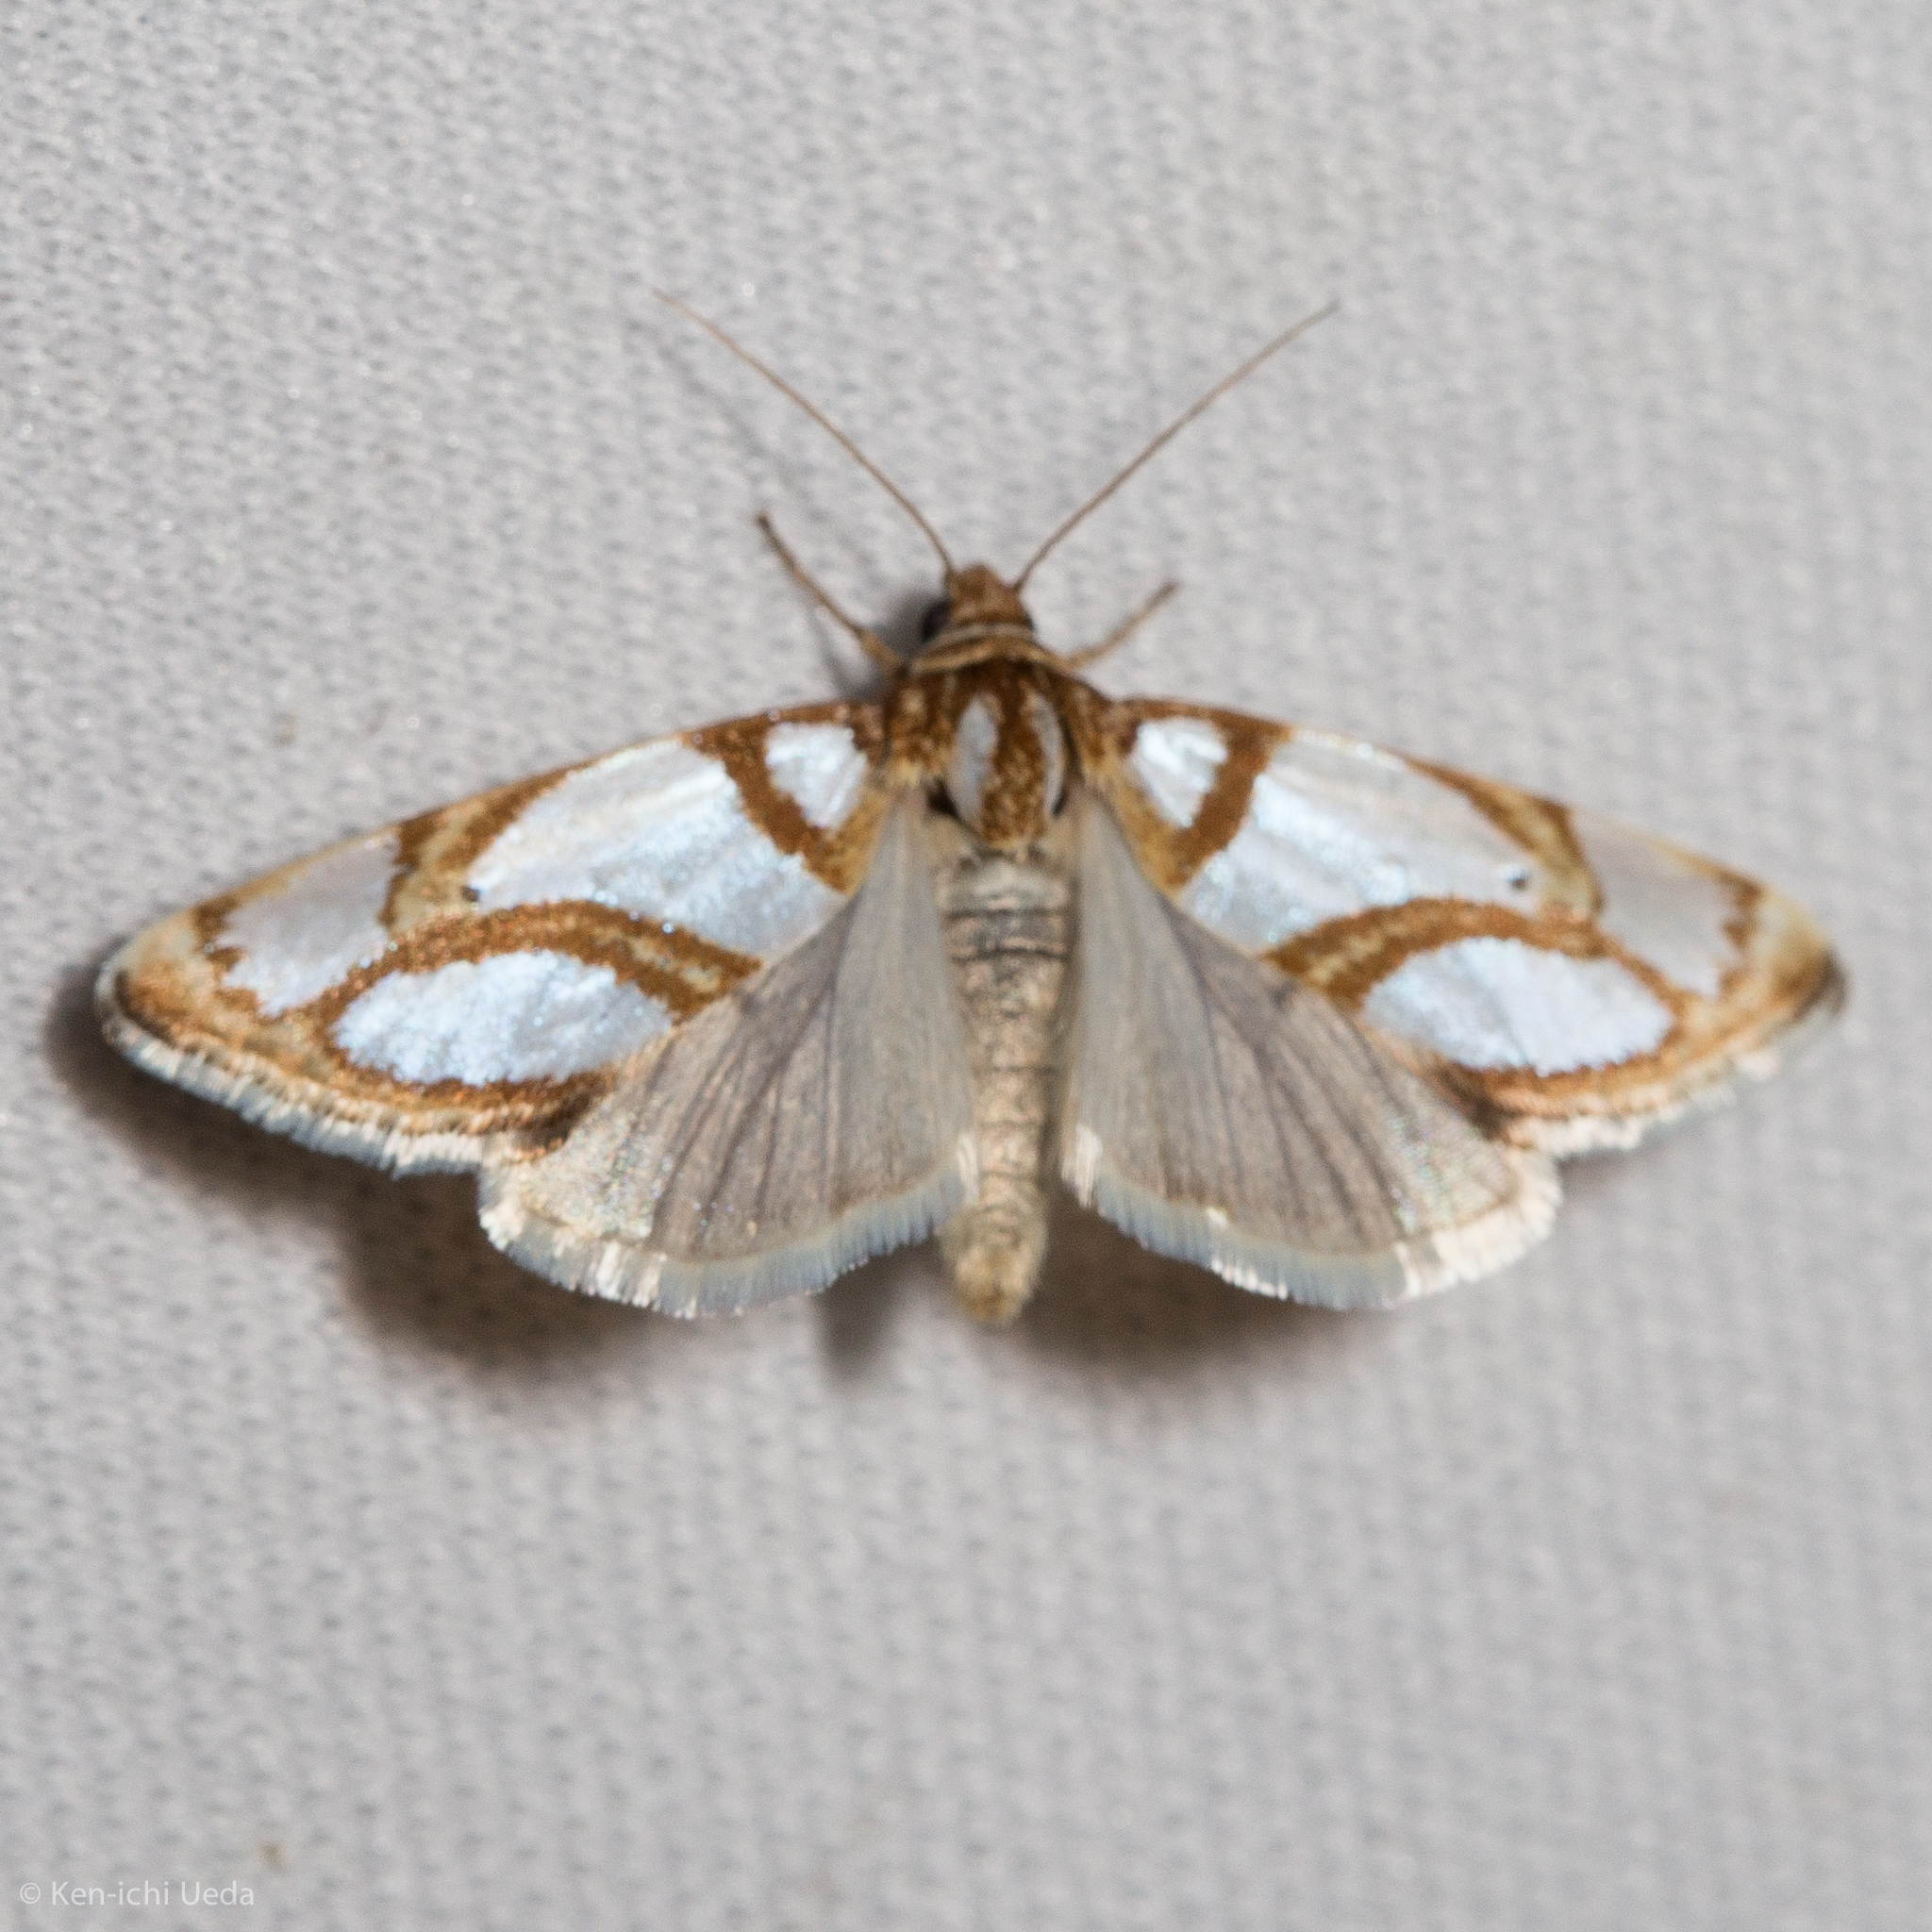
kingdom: Animalia
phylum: Arthropoda
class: Insecta
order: Lepidoptera
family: Noctuidae
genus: Argentostiria
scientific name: Argentostiria koebelei
